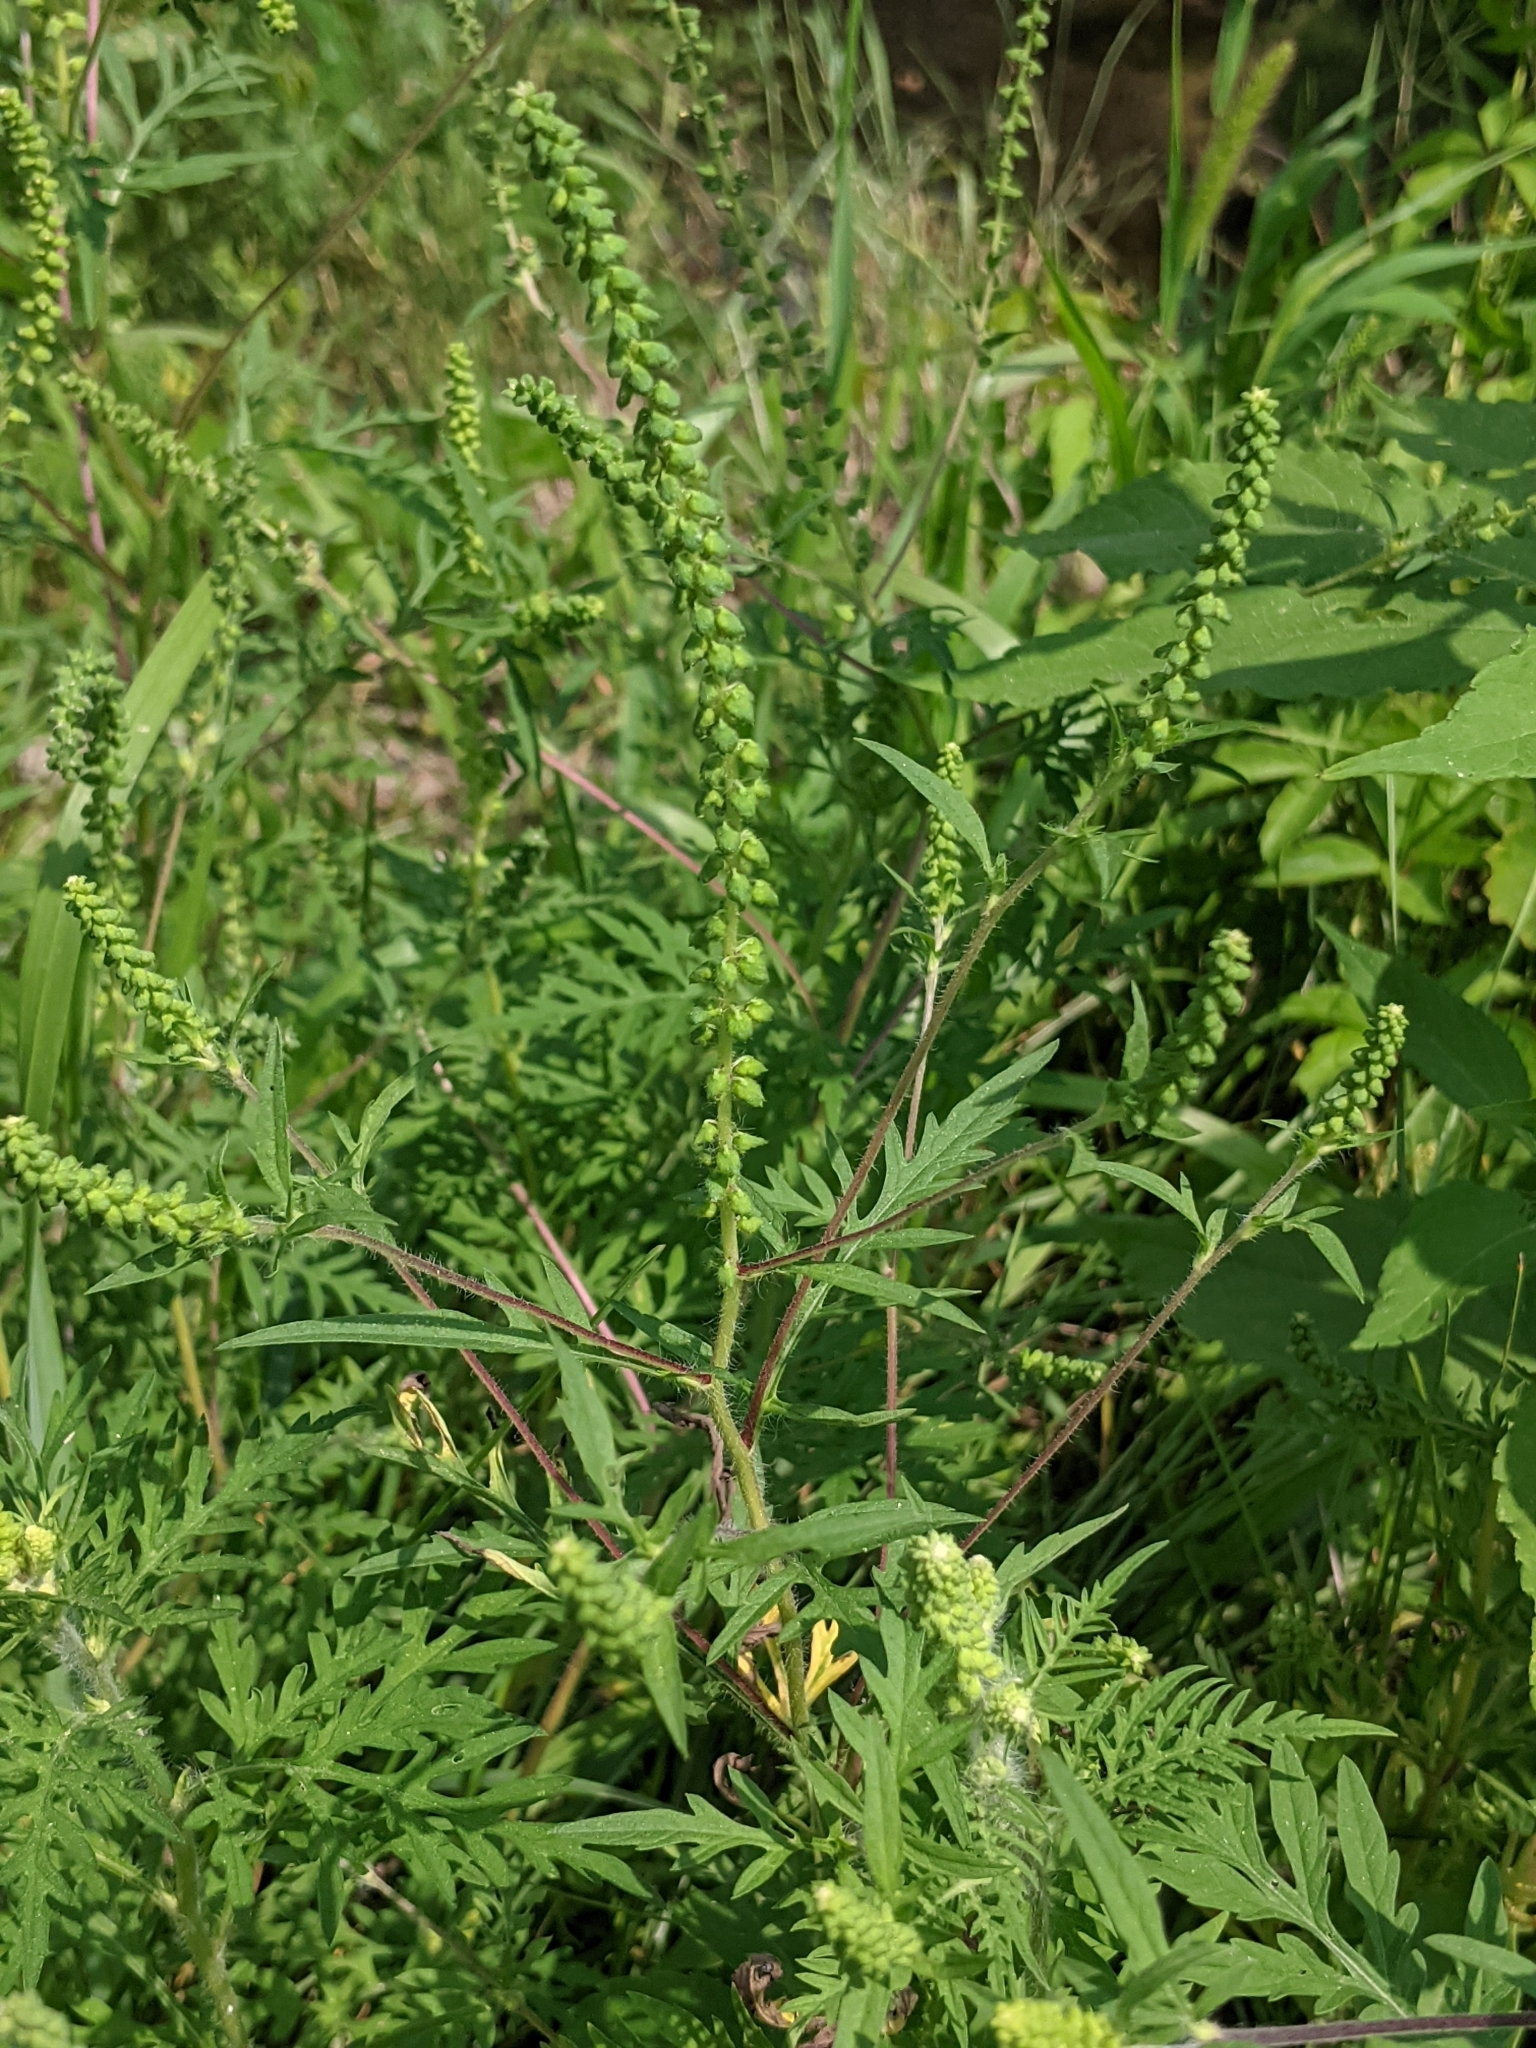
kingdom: Plantae
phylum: Tracheophyta
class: Magnoliopsida
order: Asterales
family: Asteraceae
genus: Ambrosia
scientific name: Ambrosia artemisiifolia
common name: Annual ragweed
